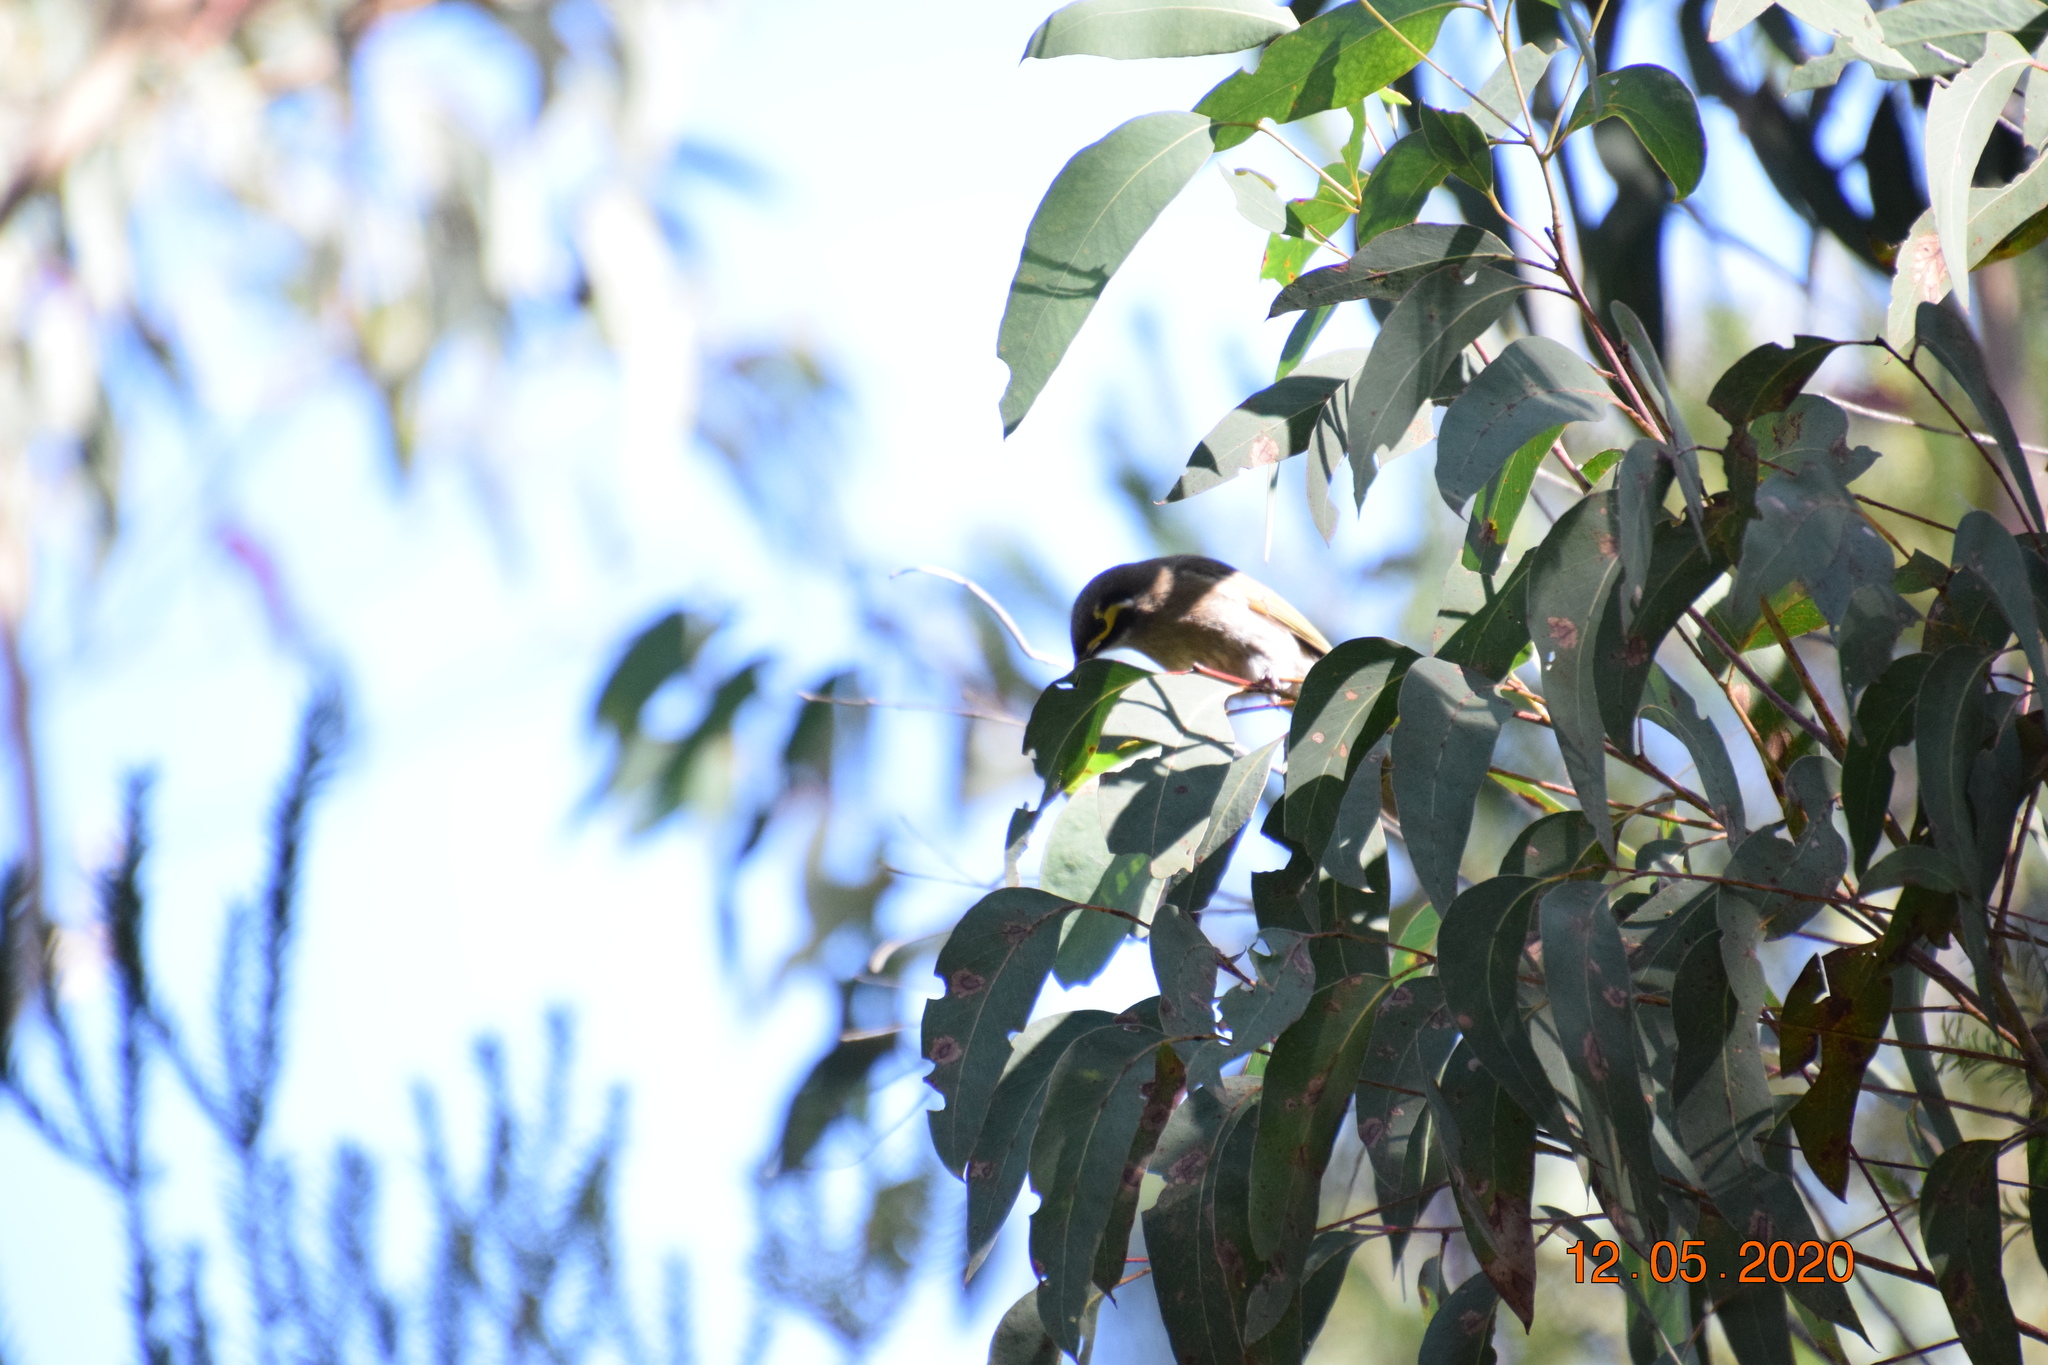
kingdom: Animalia
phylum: Chordata
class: Aves
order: Passeriformes
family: Meliphagidae
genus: Caligavis
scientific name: Caligavis chrysops
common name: Yellow-faced honeyeater
